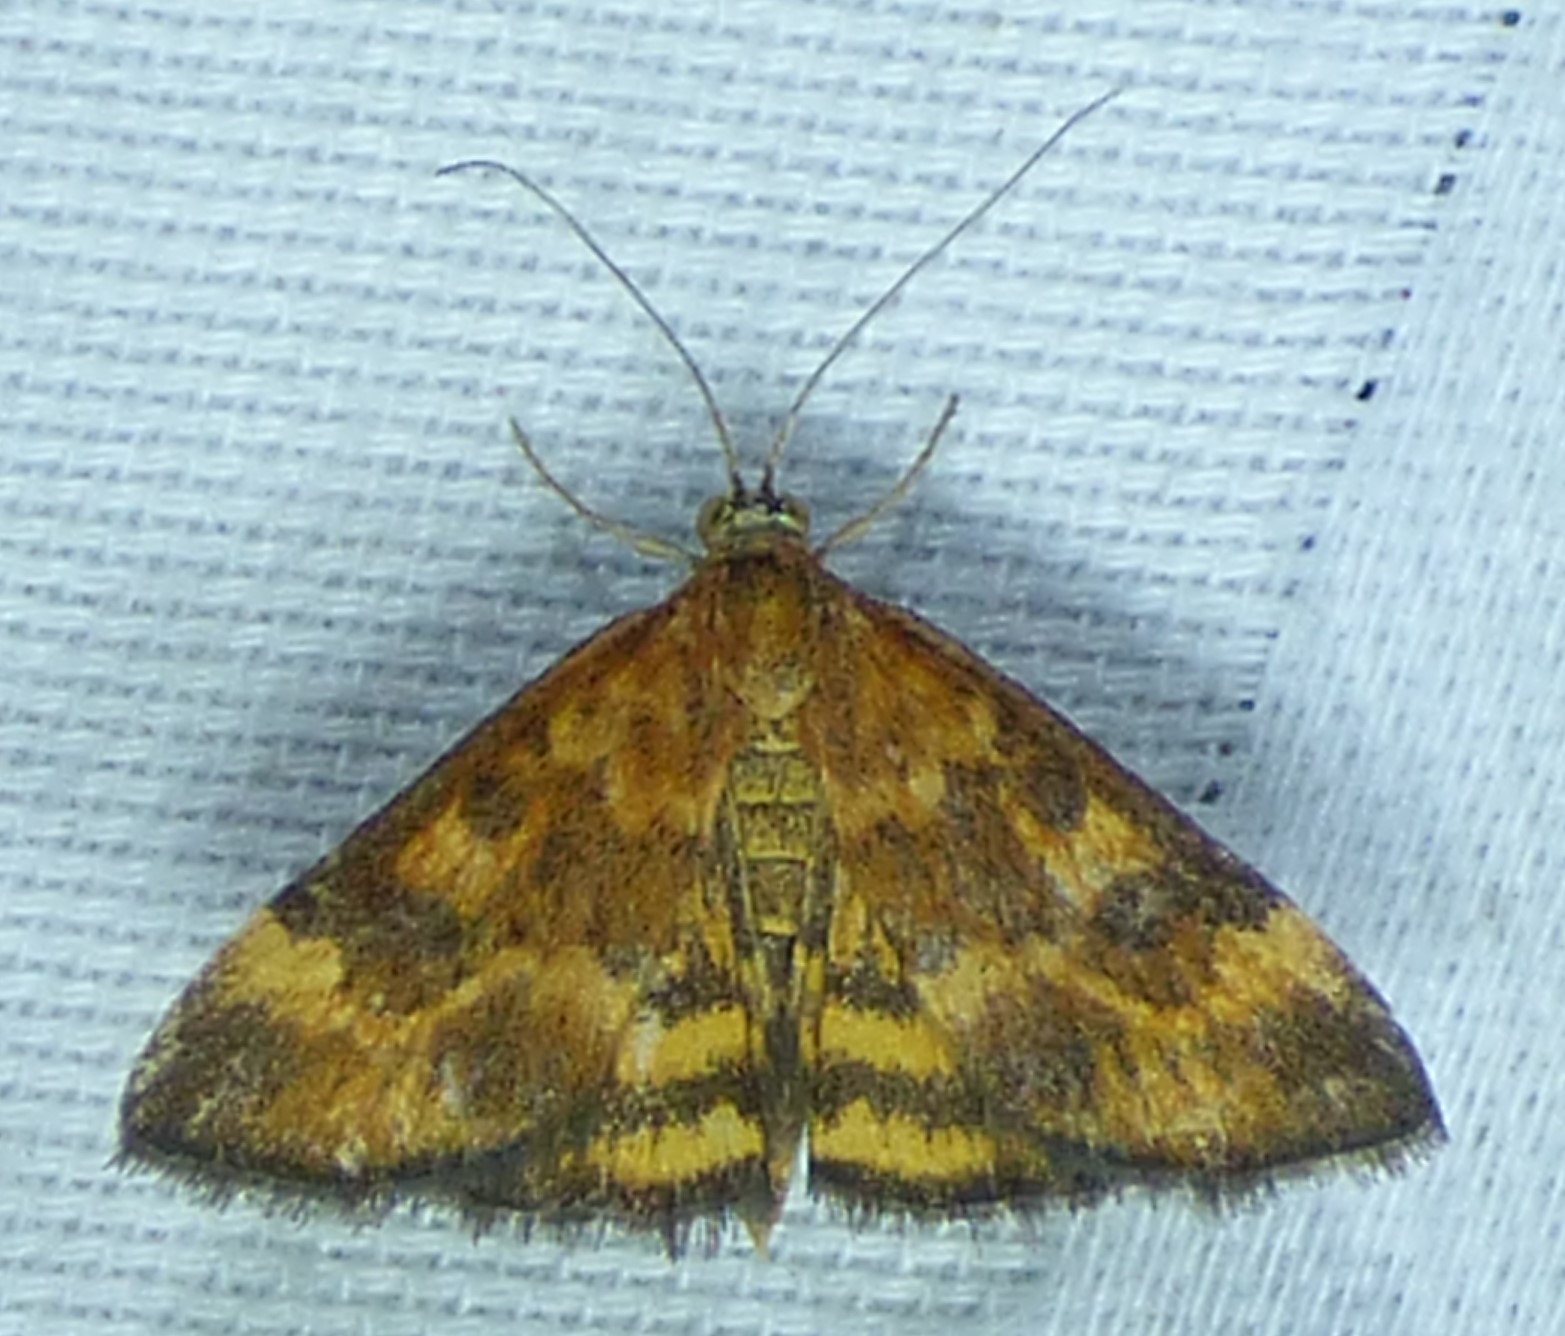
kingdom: Animalia
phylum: Arthropoda
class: Insecta
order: Lepidoptera
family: Crambidae
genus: Pyrausta
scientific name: Pyrausta subsequalis
